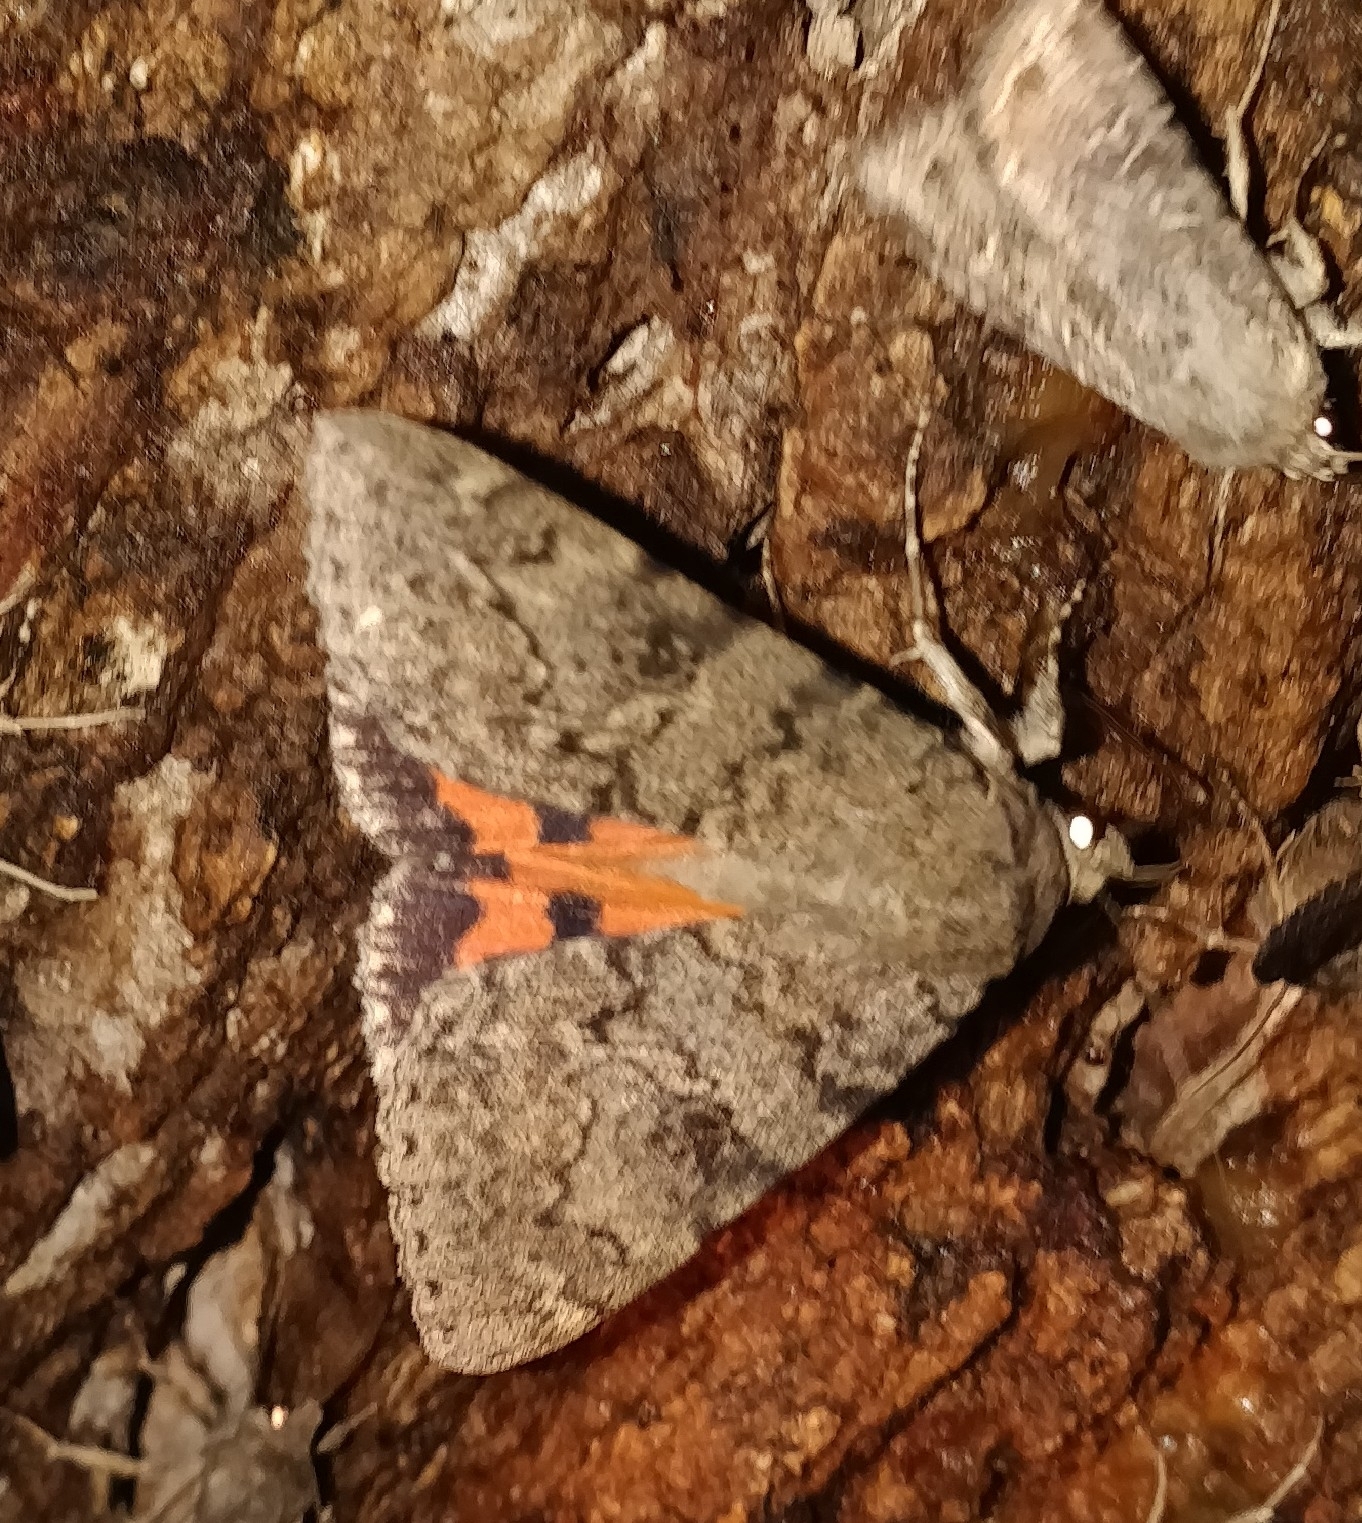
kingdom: Animalia
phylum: Arthropoda
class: Insecta
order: Lepidoptera
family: Erebidae
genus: Catocala
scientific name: Catocala luciana
